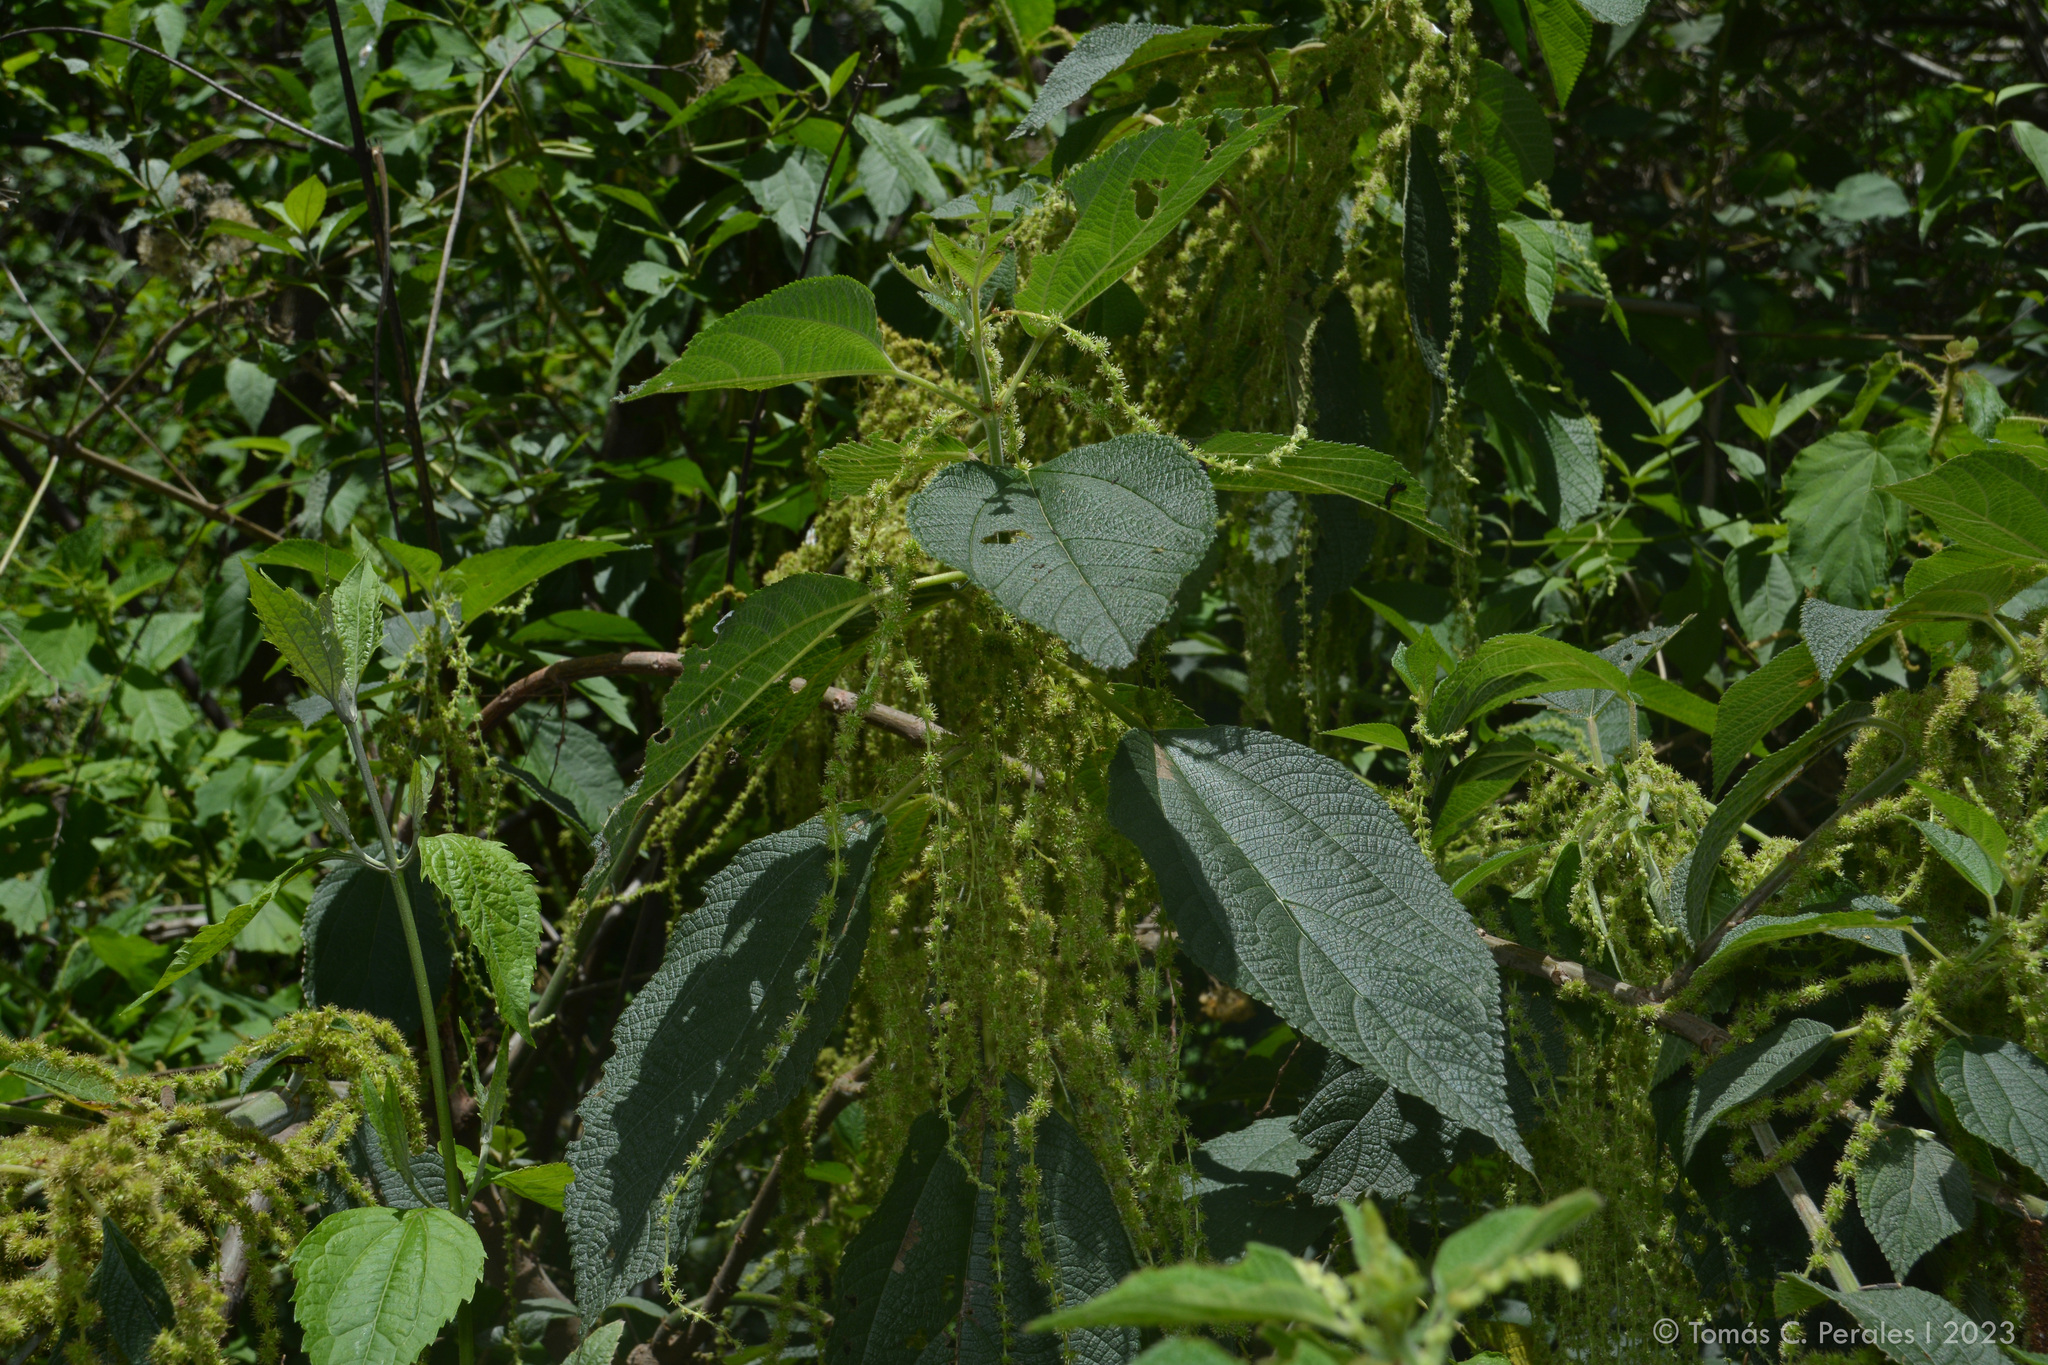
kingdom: Plantae
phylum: Tracheophyta
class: Magnoliopsida
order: Rosales
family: Urticaceae
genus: Boehmeria
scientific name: Boehmeria caudata
